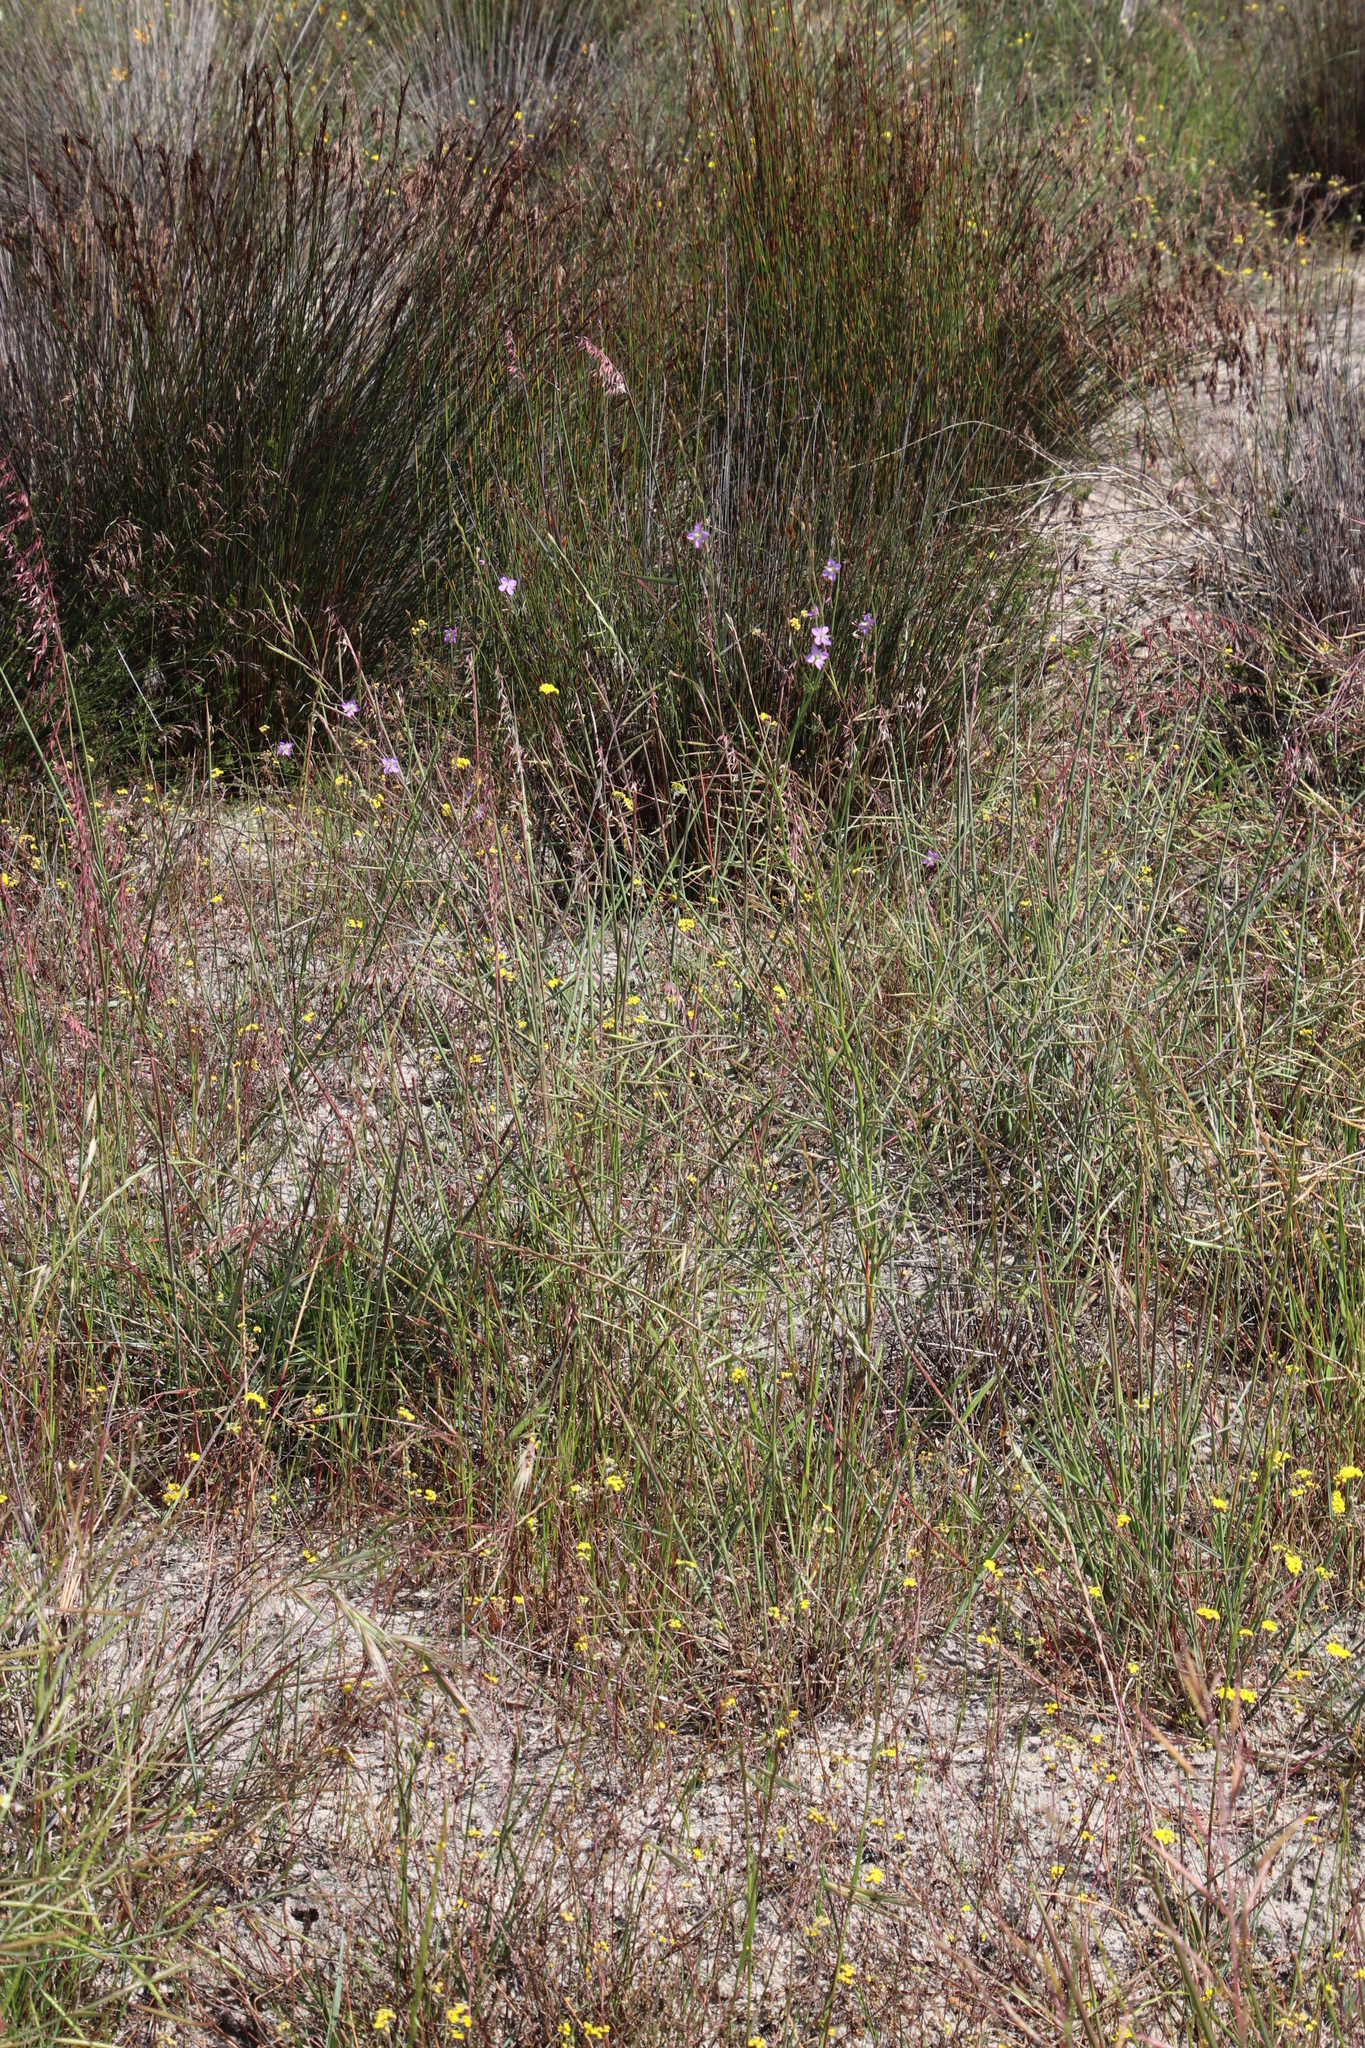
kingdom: Plantae
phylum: Tracheophyta
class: Magnoliopsida
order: Brassicales
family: Brassicaceae
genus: Heliophila
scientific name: Heliophila linoides
